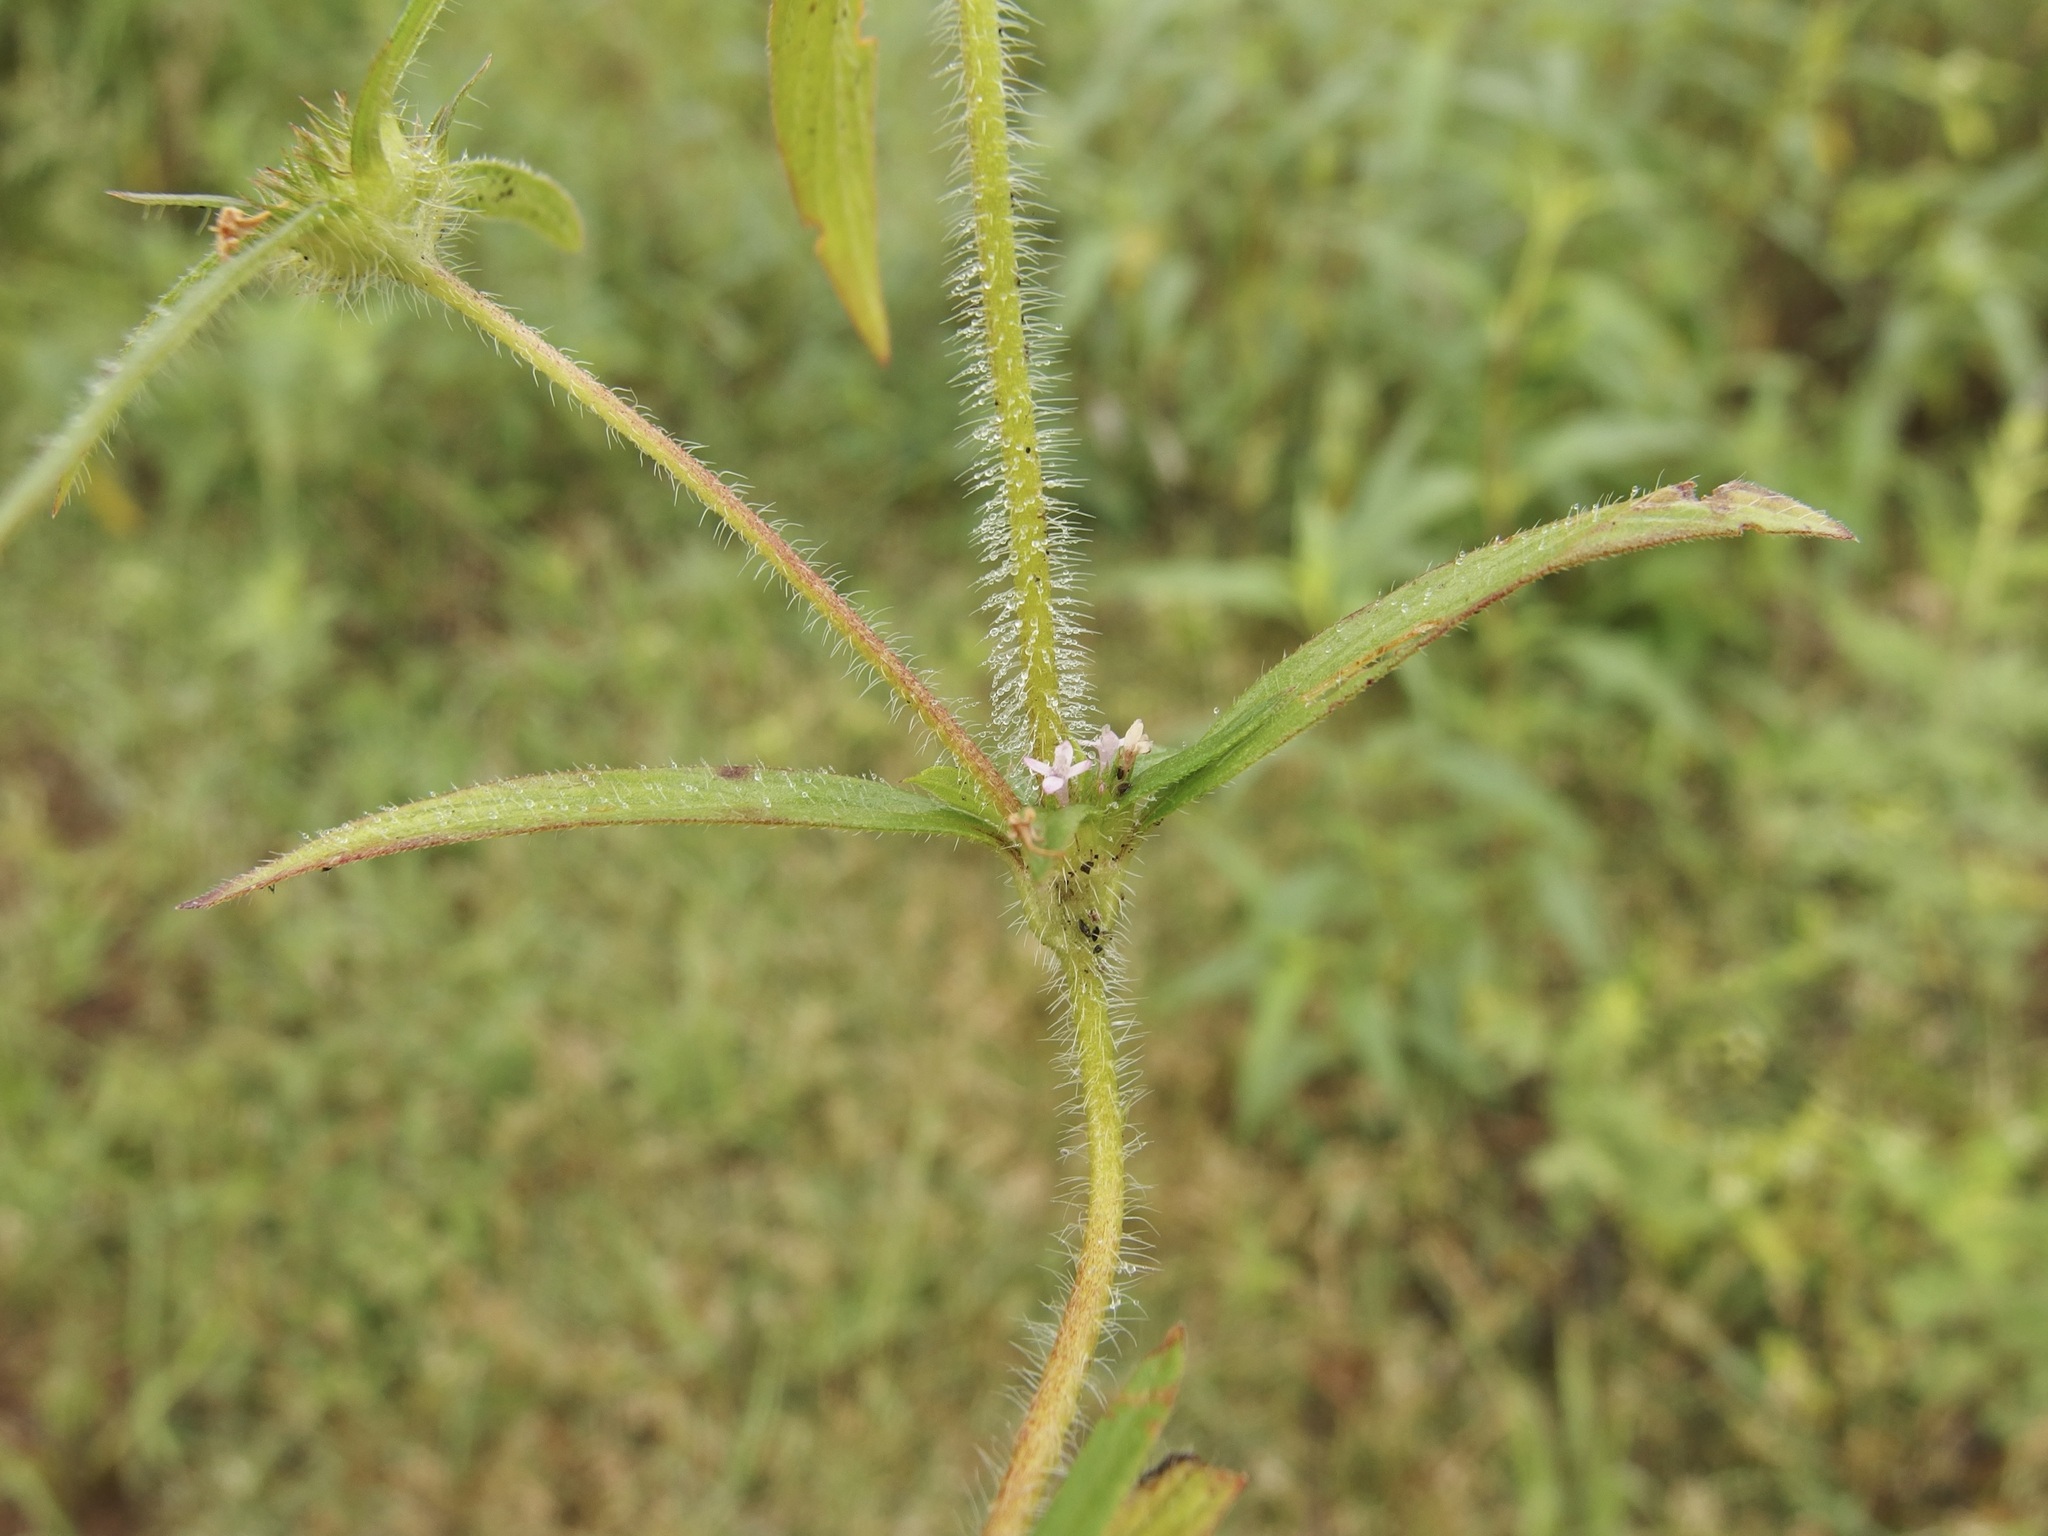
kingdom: Plantae
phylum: Tracheophyta
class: Magnoliopsida
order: Gentianales
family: Rubiaceae
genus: Crusea
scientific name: Crusea wrightii
